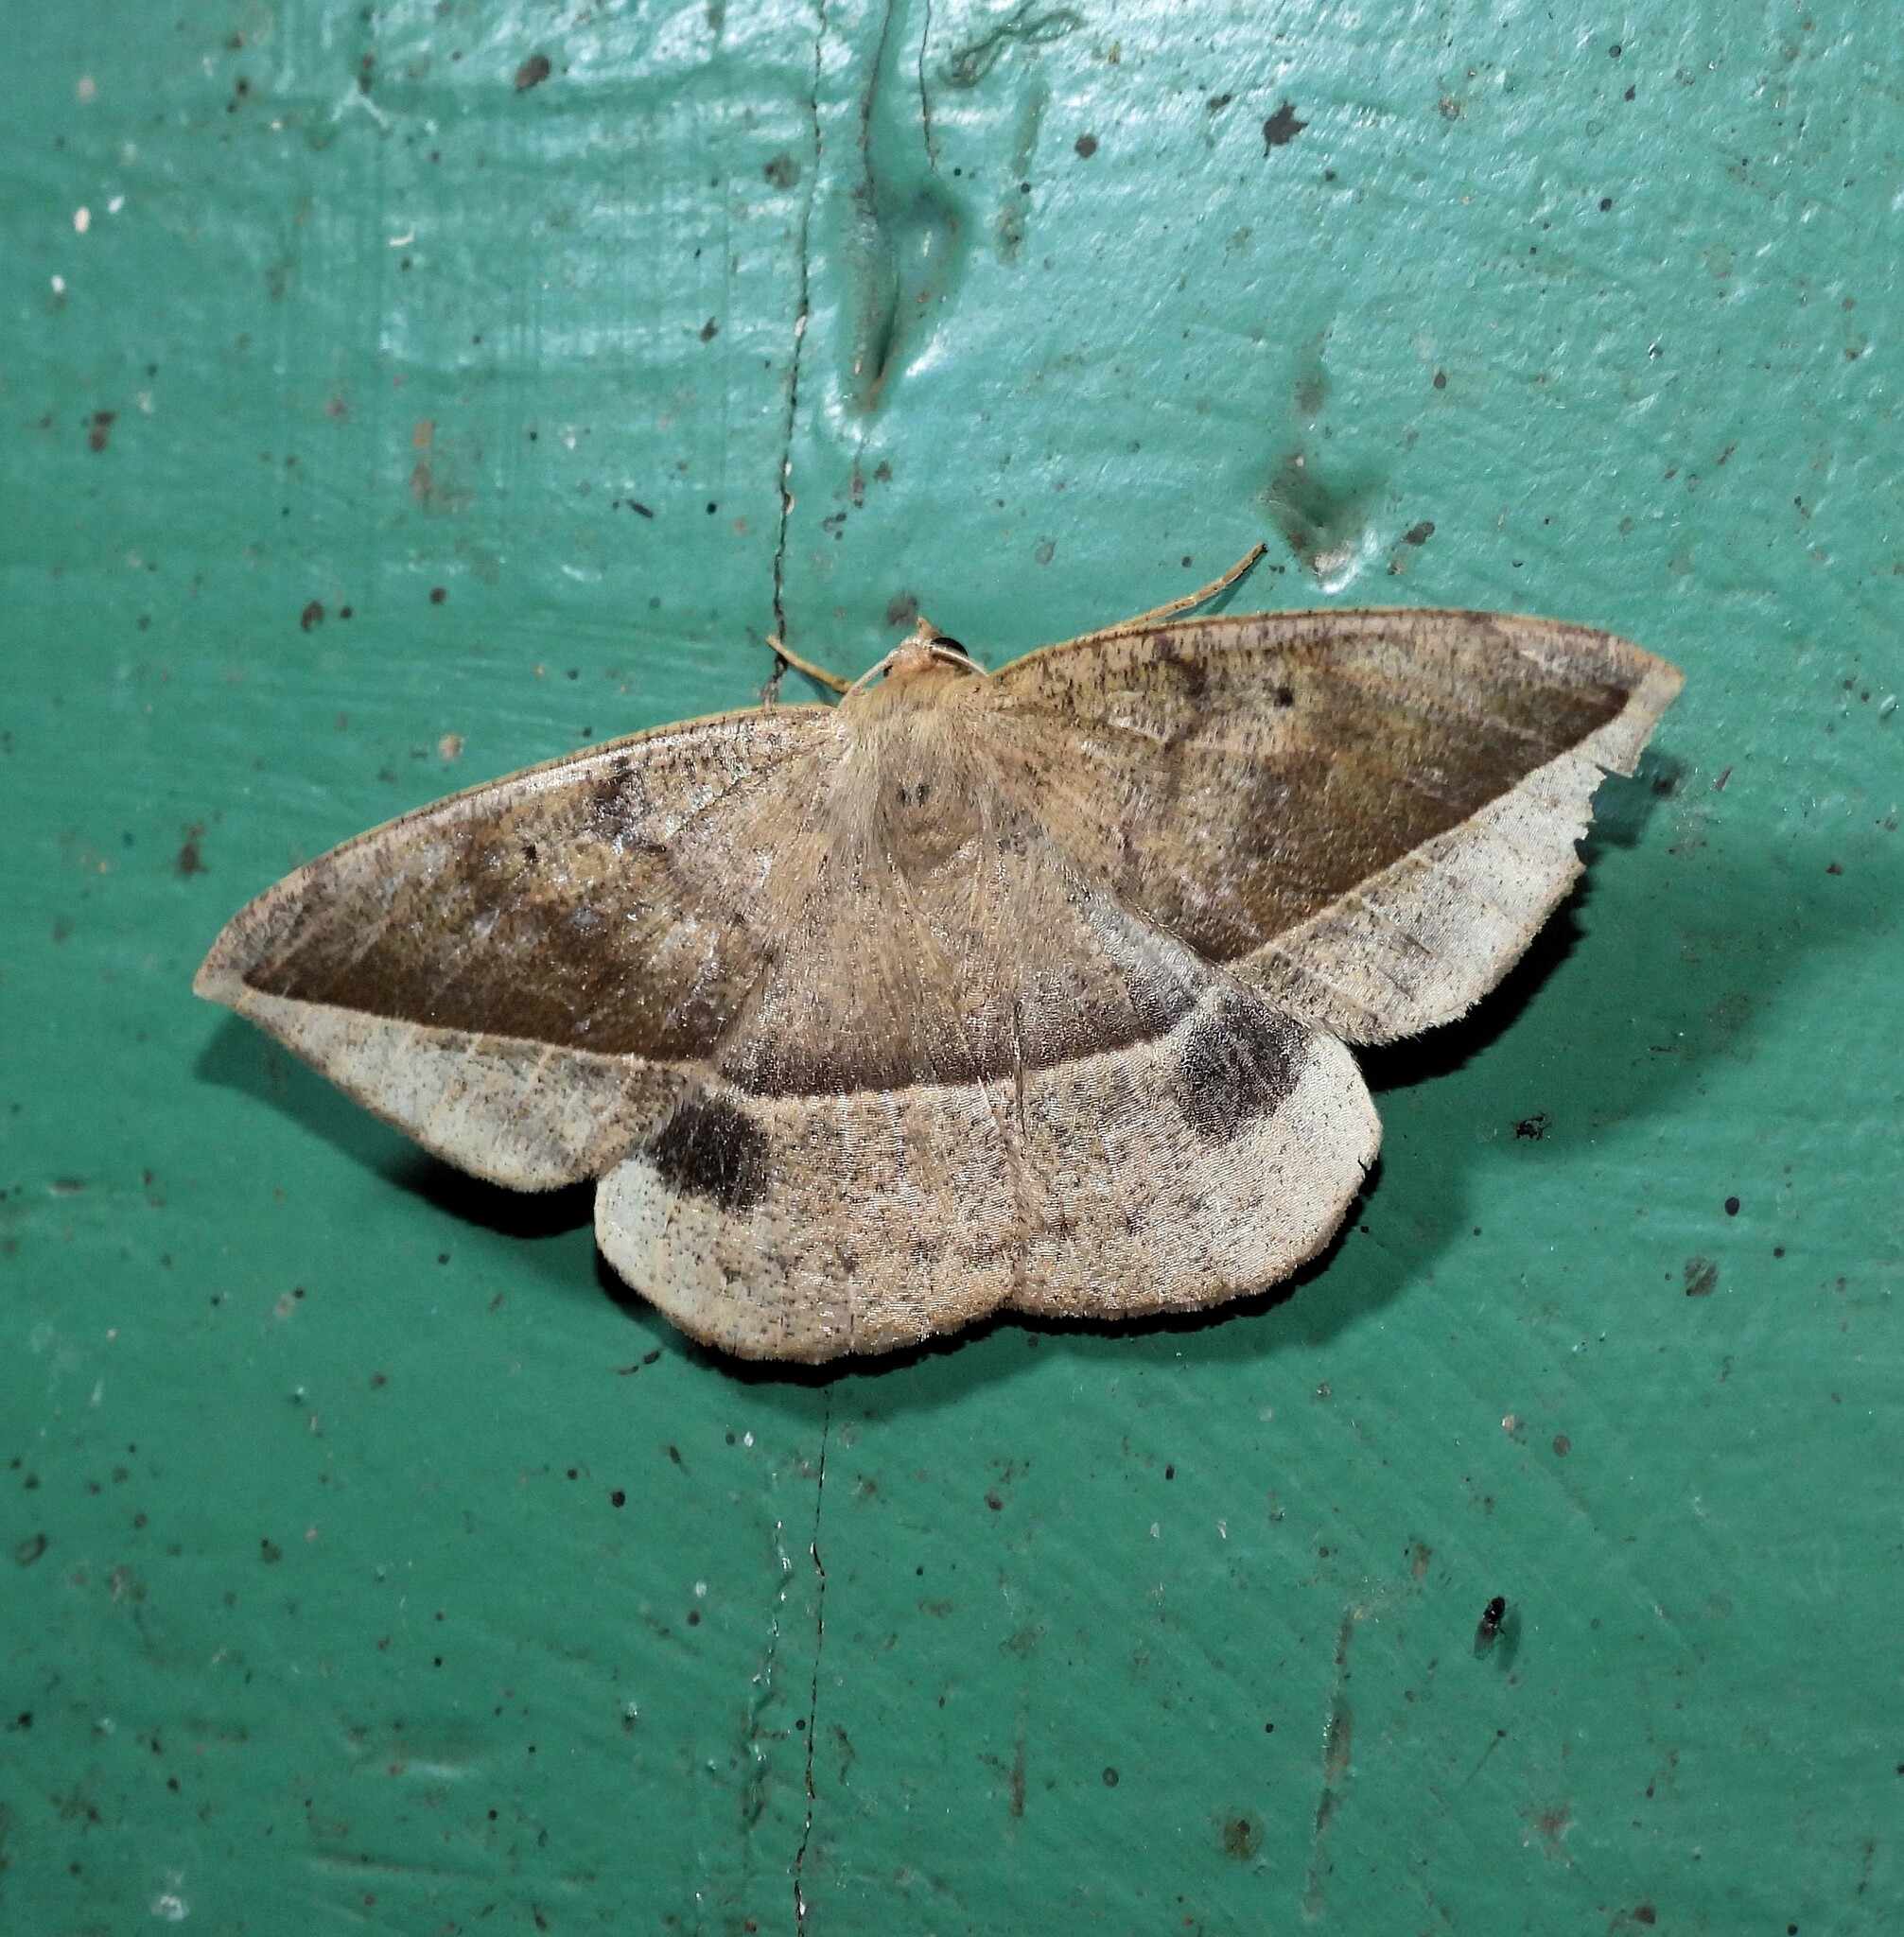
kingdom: Animalia
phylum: Arthropoda
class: Insecta
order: Lepidoptera
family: Geometridae
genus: Oxydia
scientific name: Oxydia nimbata
